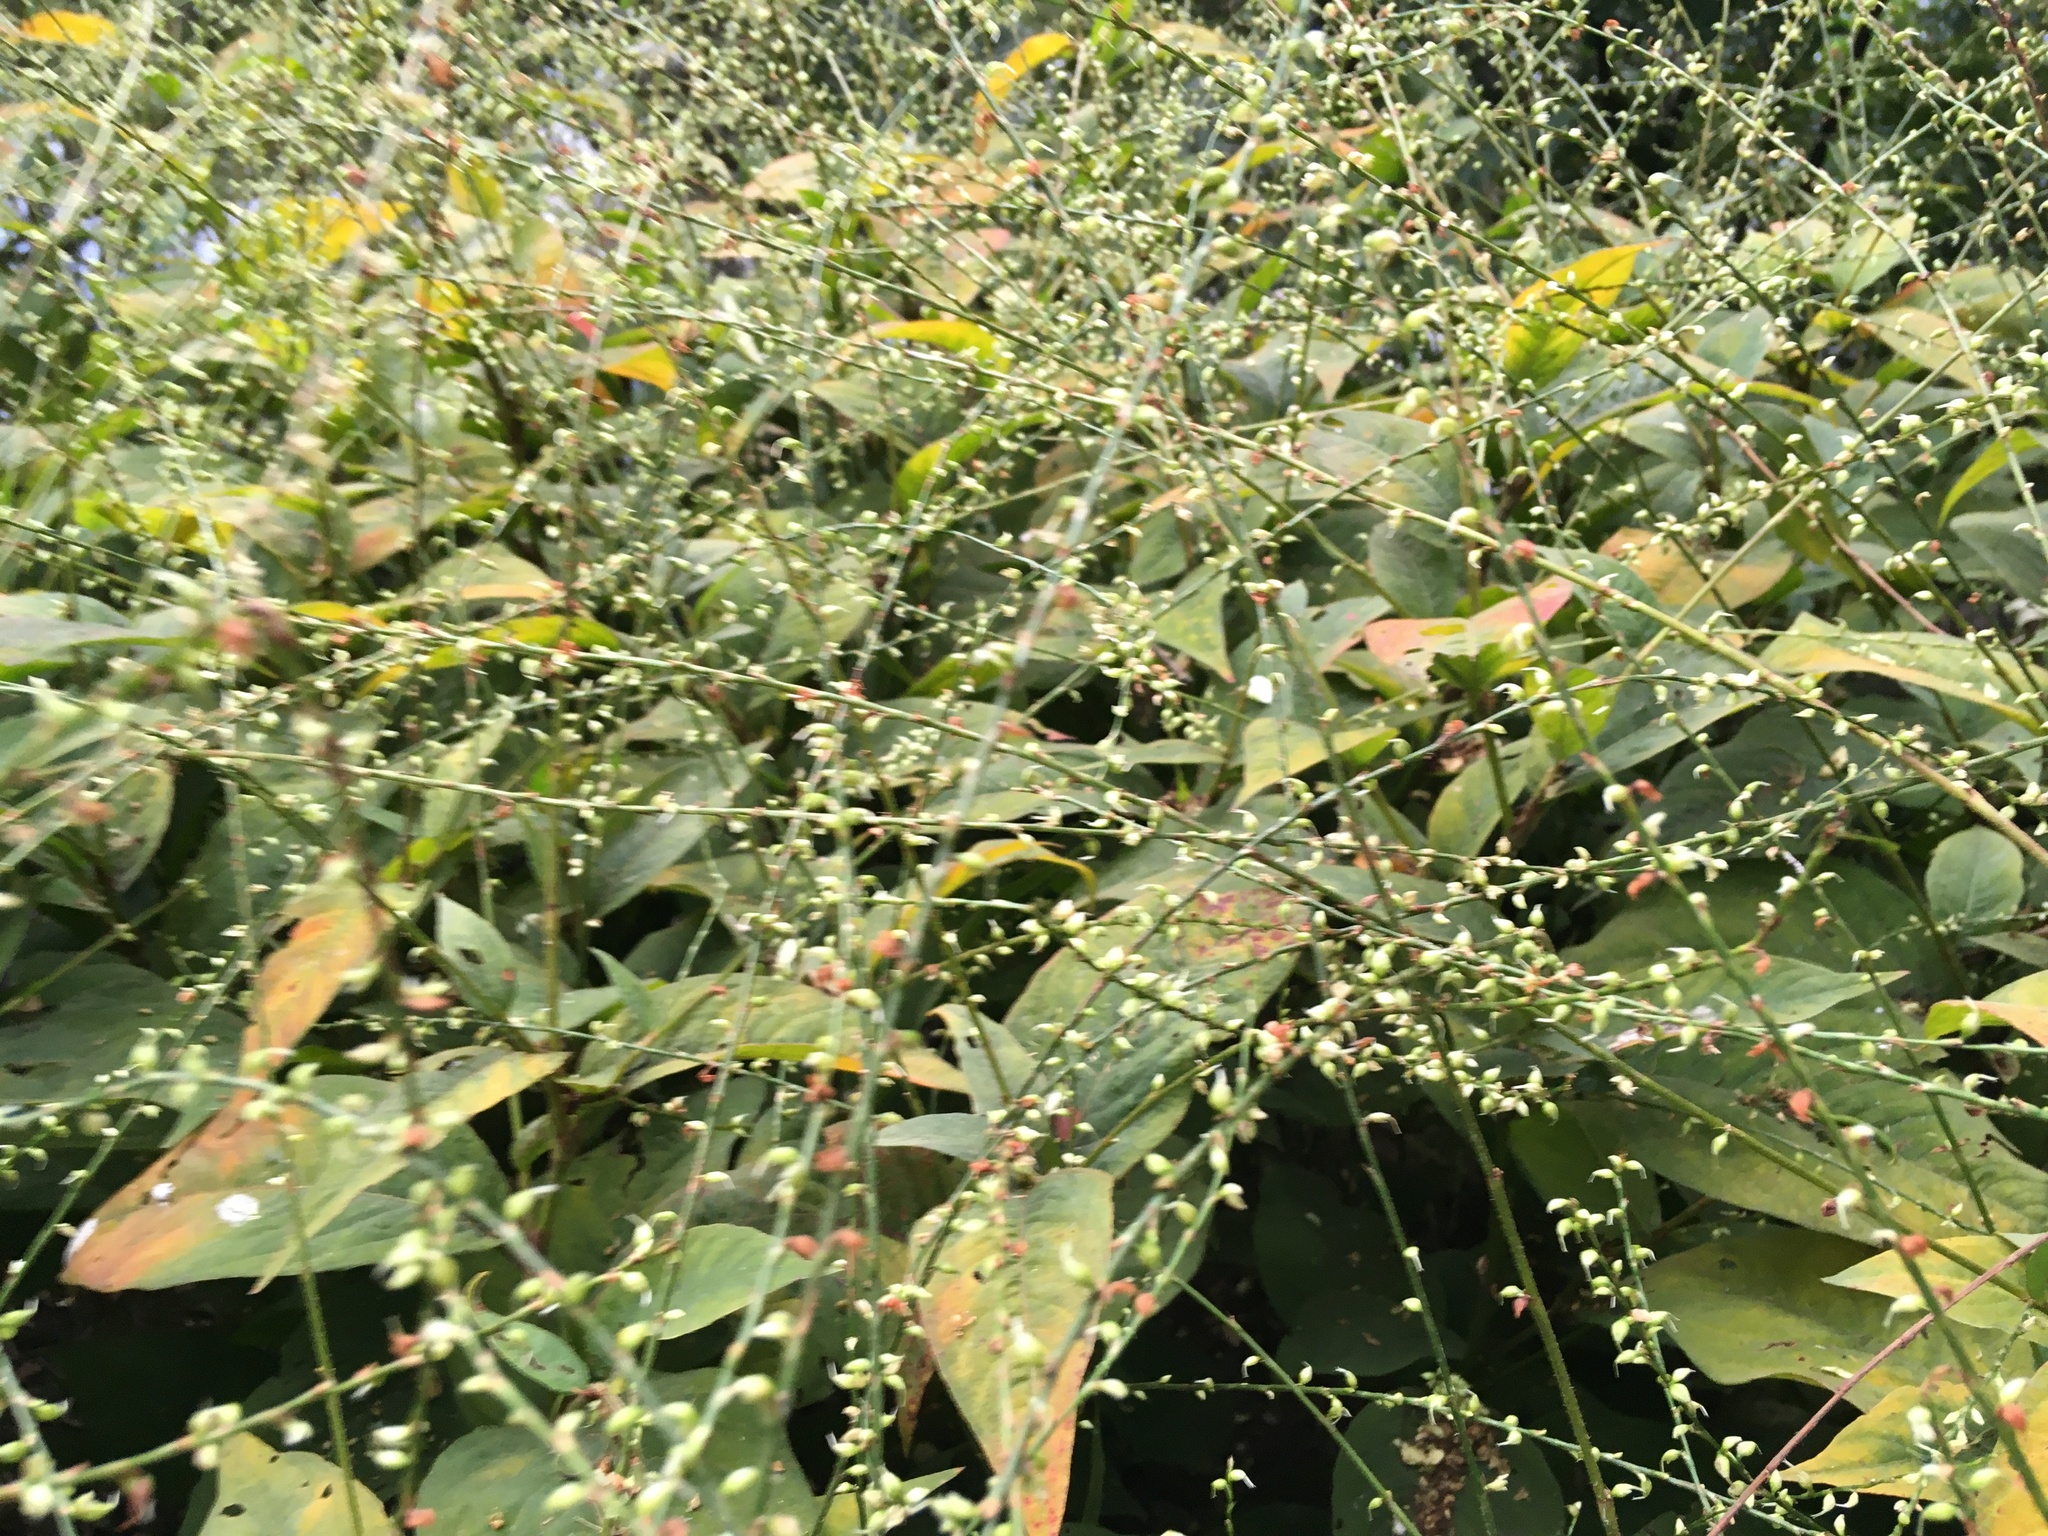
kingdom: Plantae
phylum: Tracheophyta
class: Magnoliopsida
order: Caryophyllales
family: Polygonaceae
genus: Persicaria
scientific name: Persicaria virginiana
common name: Jumpseed
